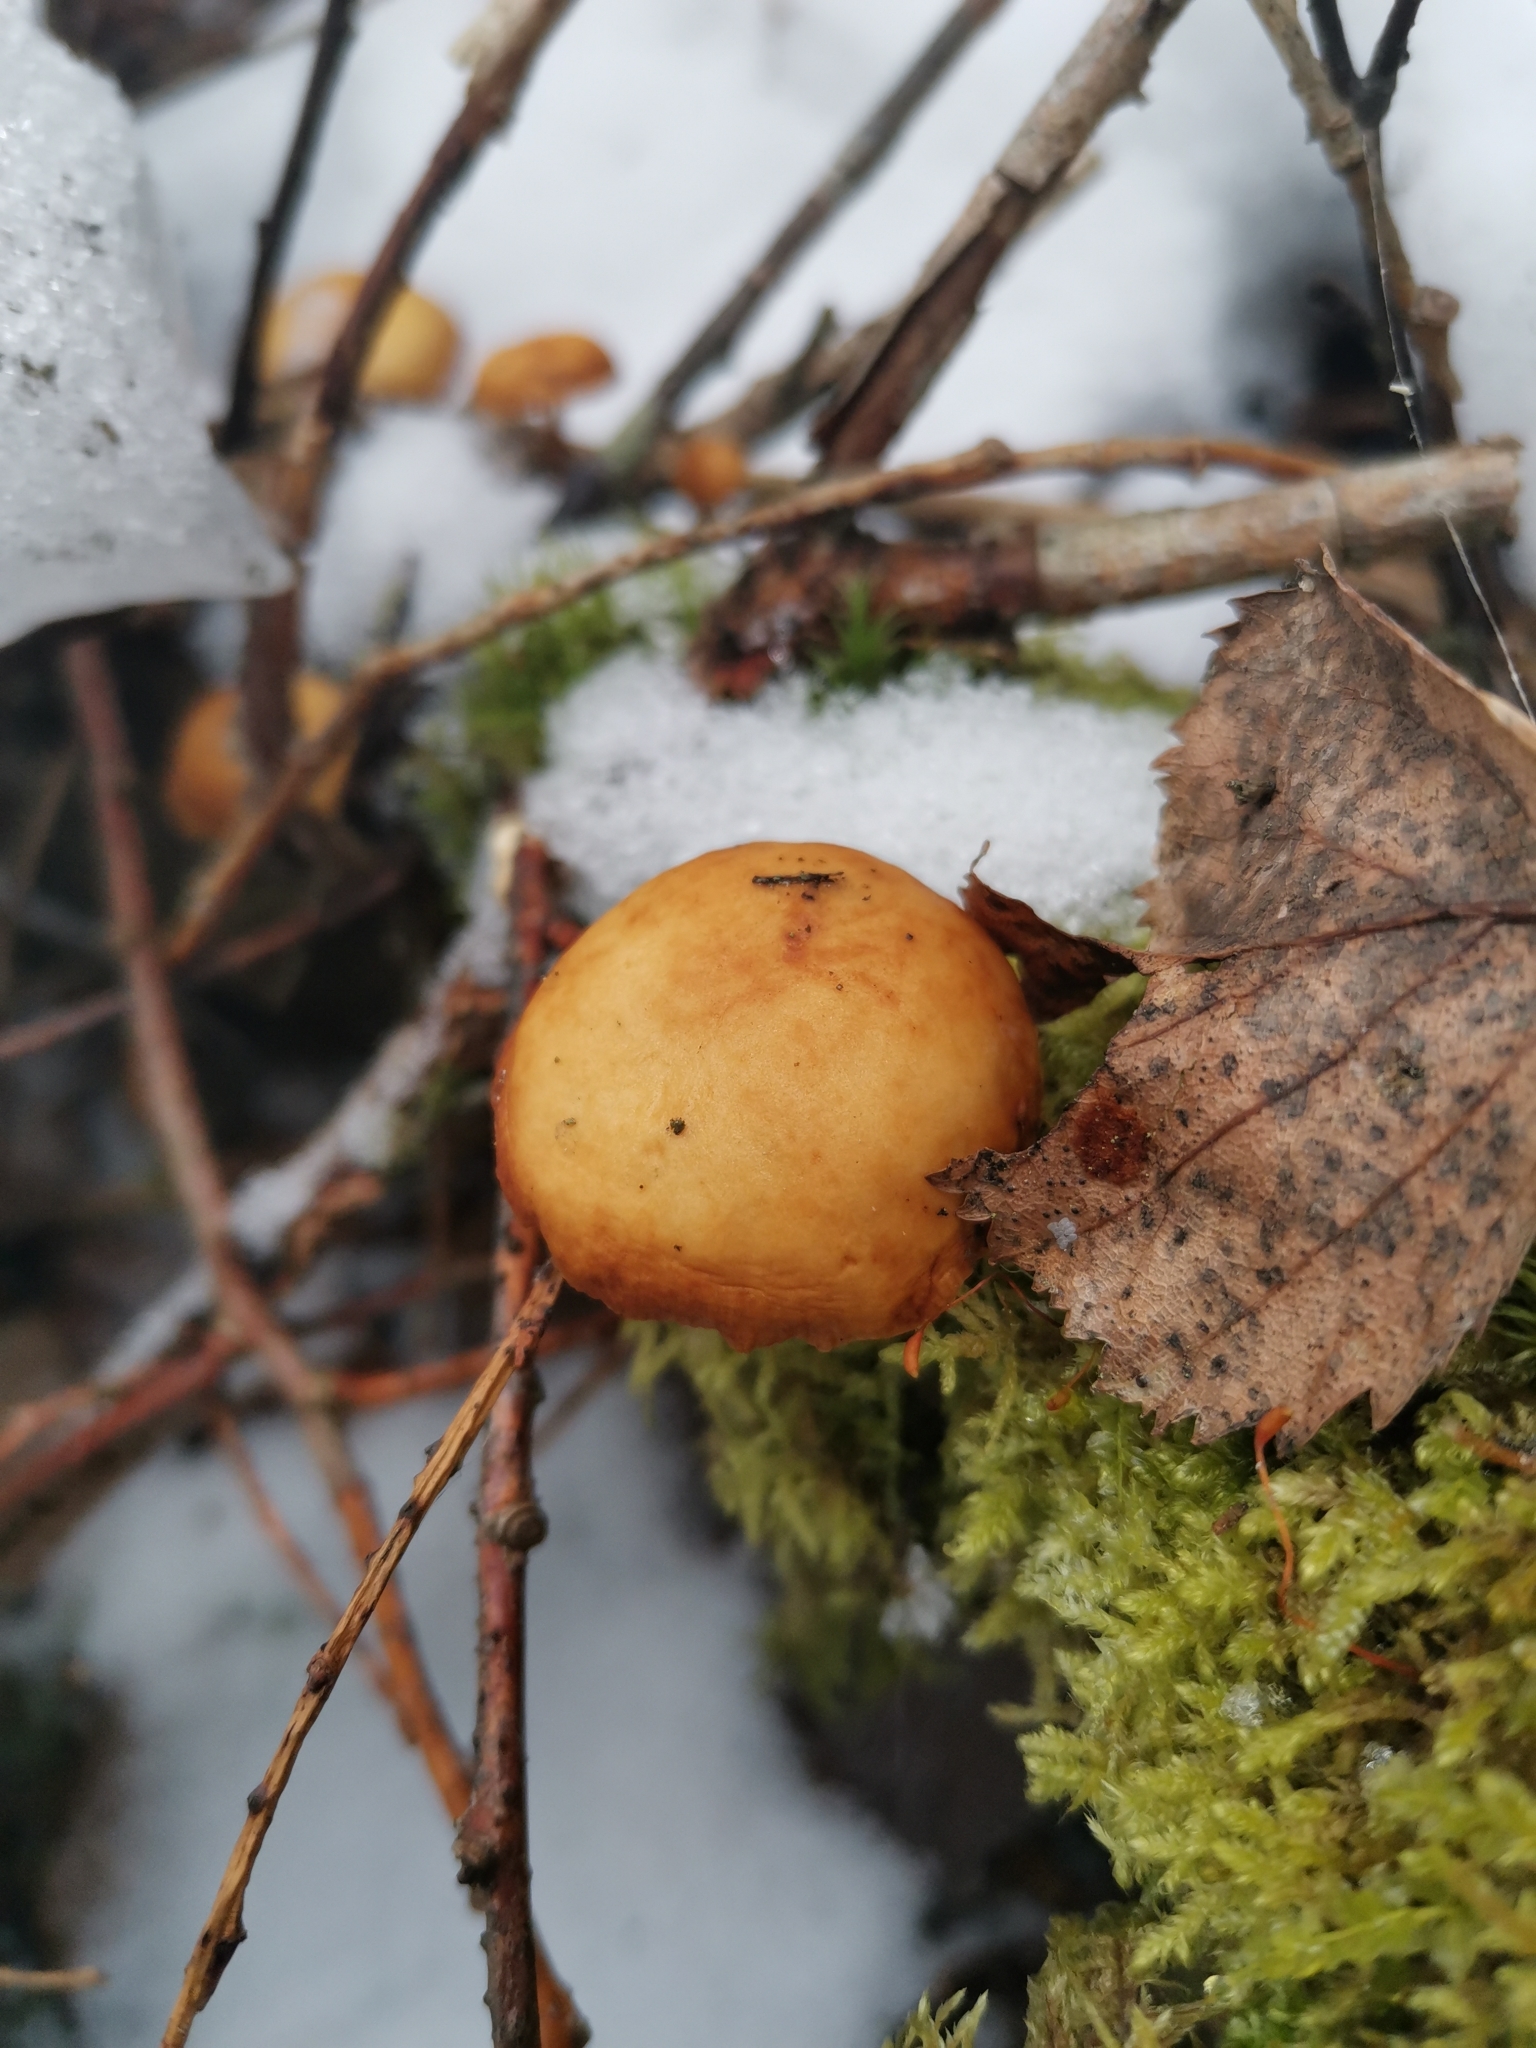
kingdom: Fungi
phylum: Basidiomycota
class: Agaricomycetes
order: Agaricales
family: Physalacriaceae
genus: Flammulina
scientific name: Flammulina
